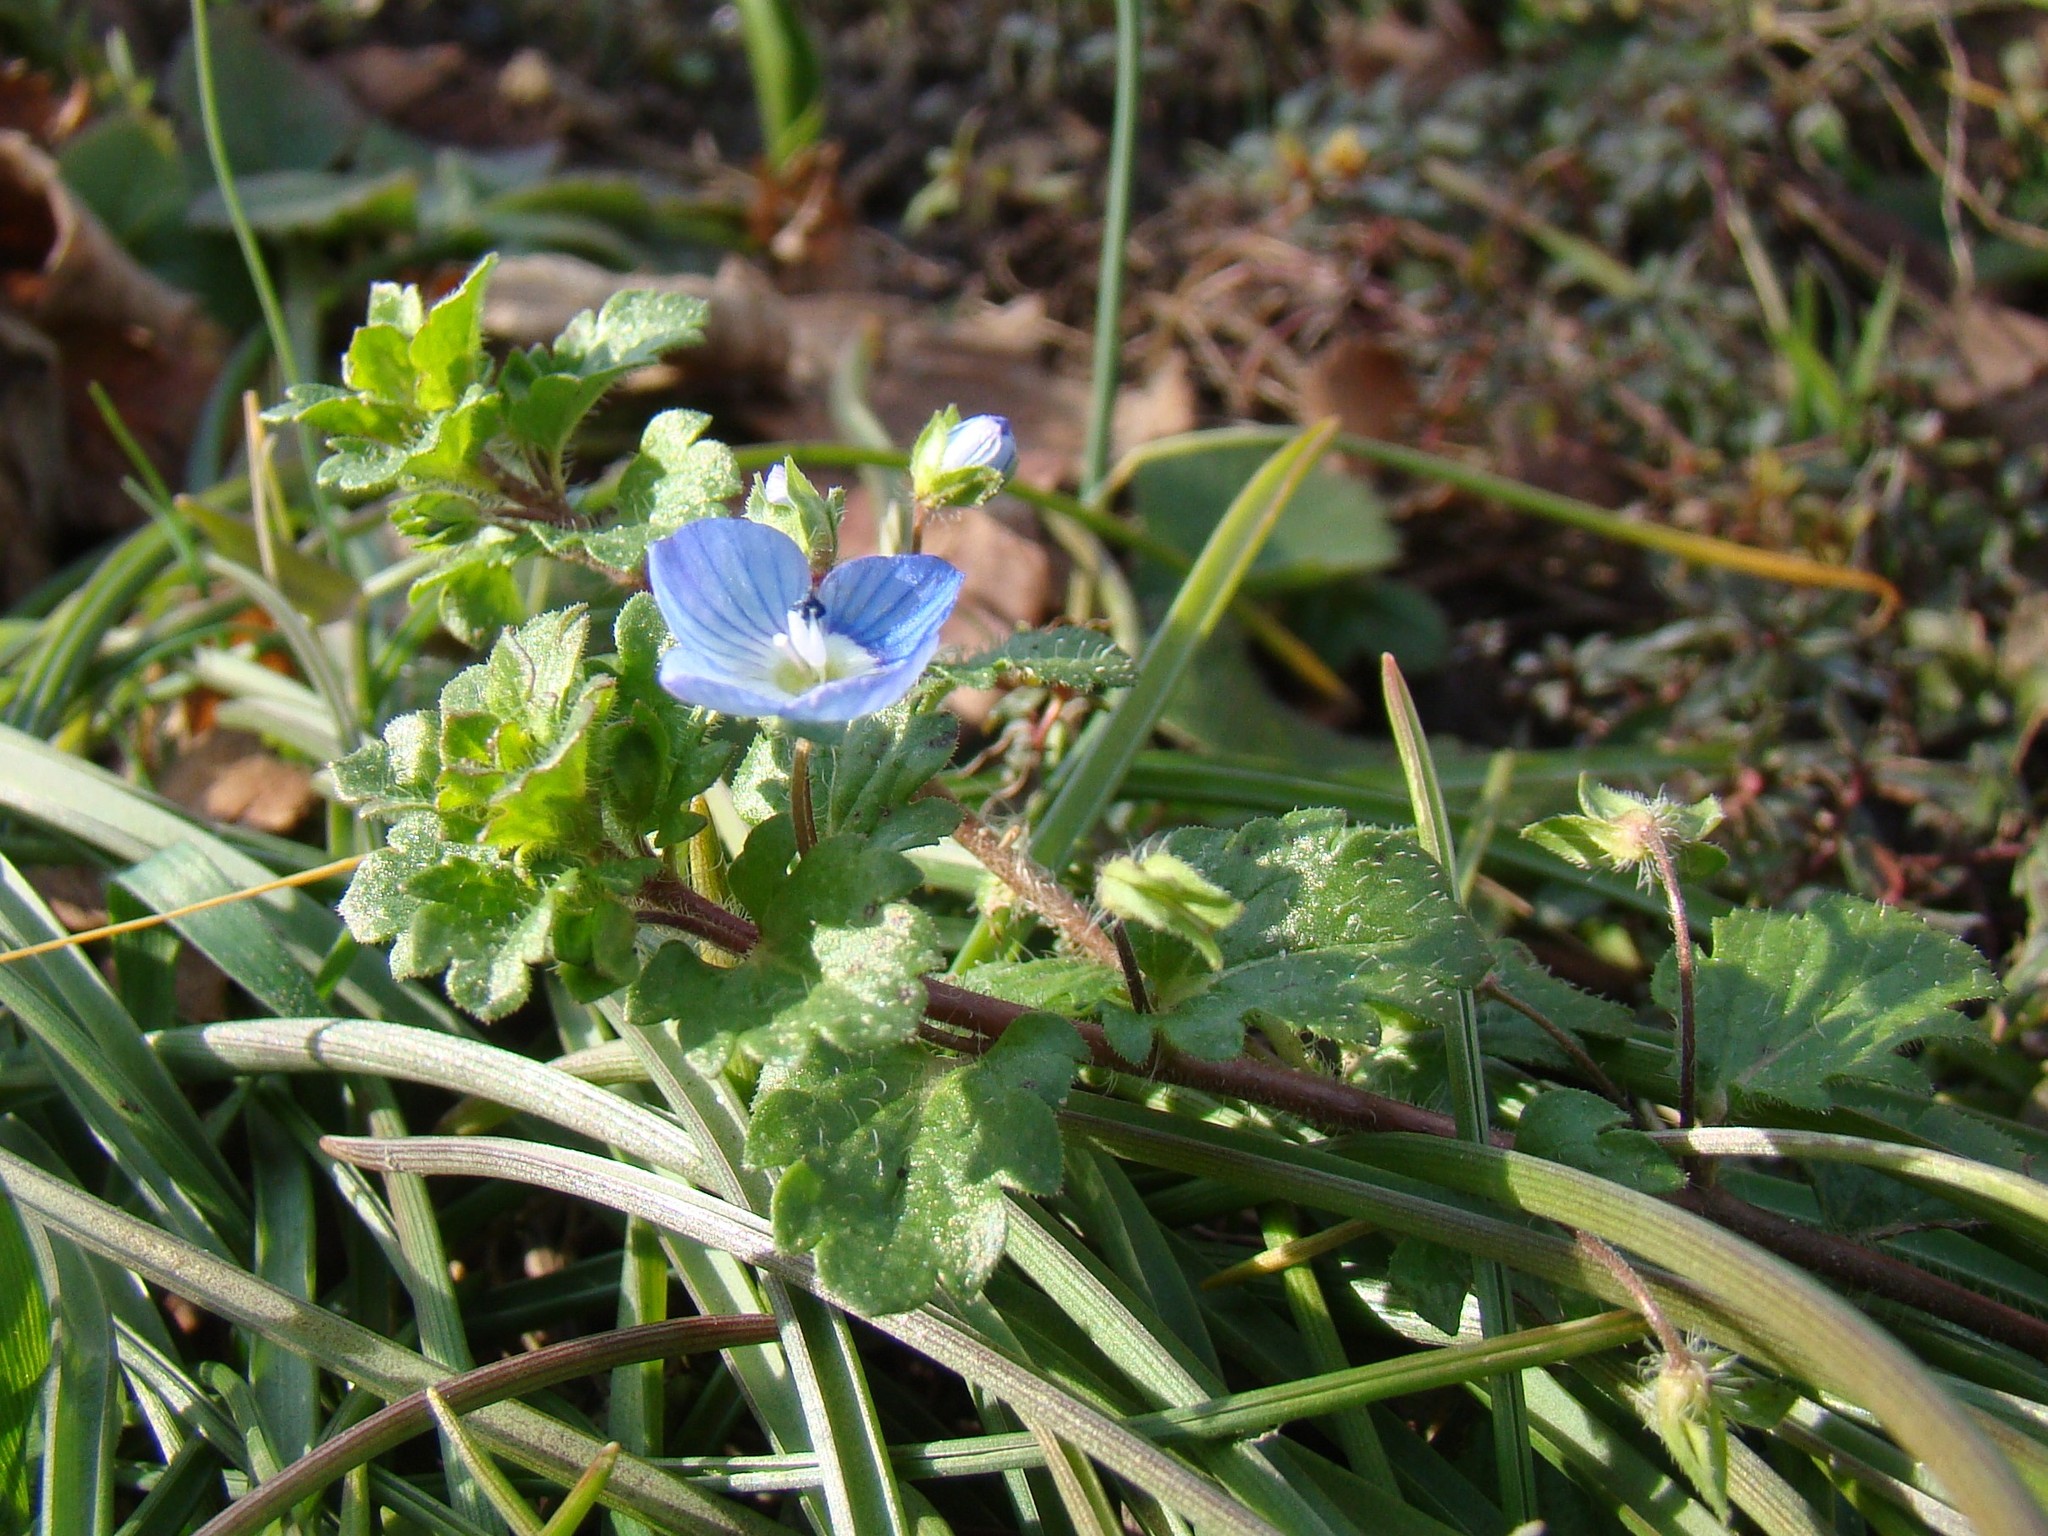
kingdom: Plantae
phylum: Tracheophyta
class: Magnoliopsida
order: Lamiales
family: Plantaginaceae
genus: Veronica
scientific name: Veronica persica
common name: Common field-speedwell
